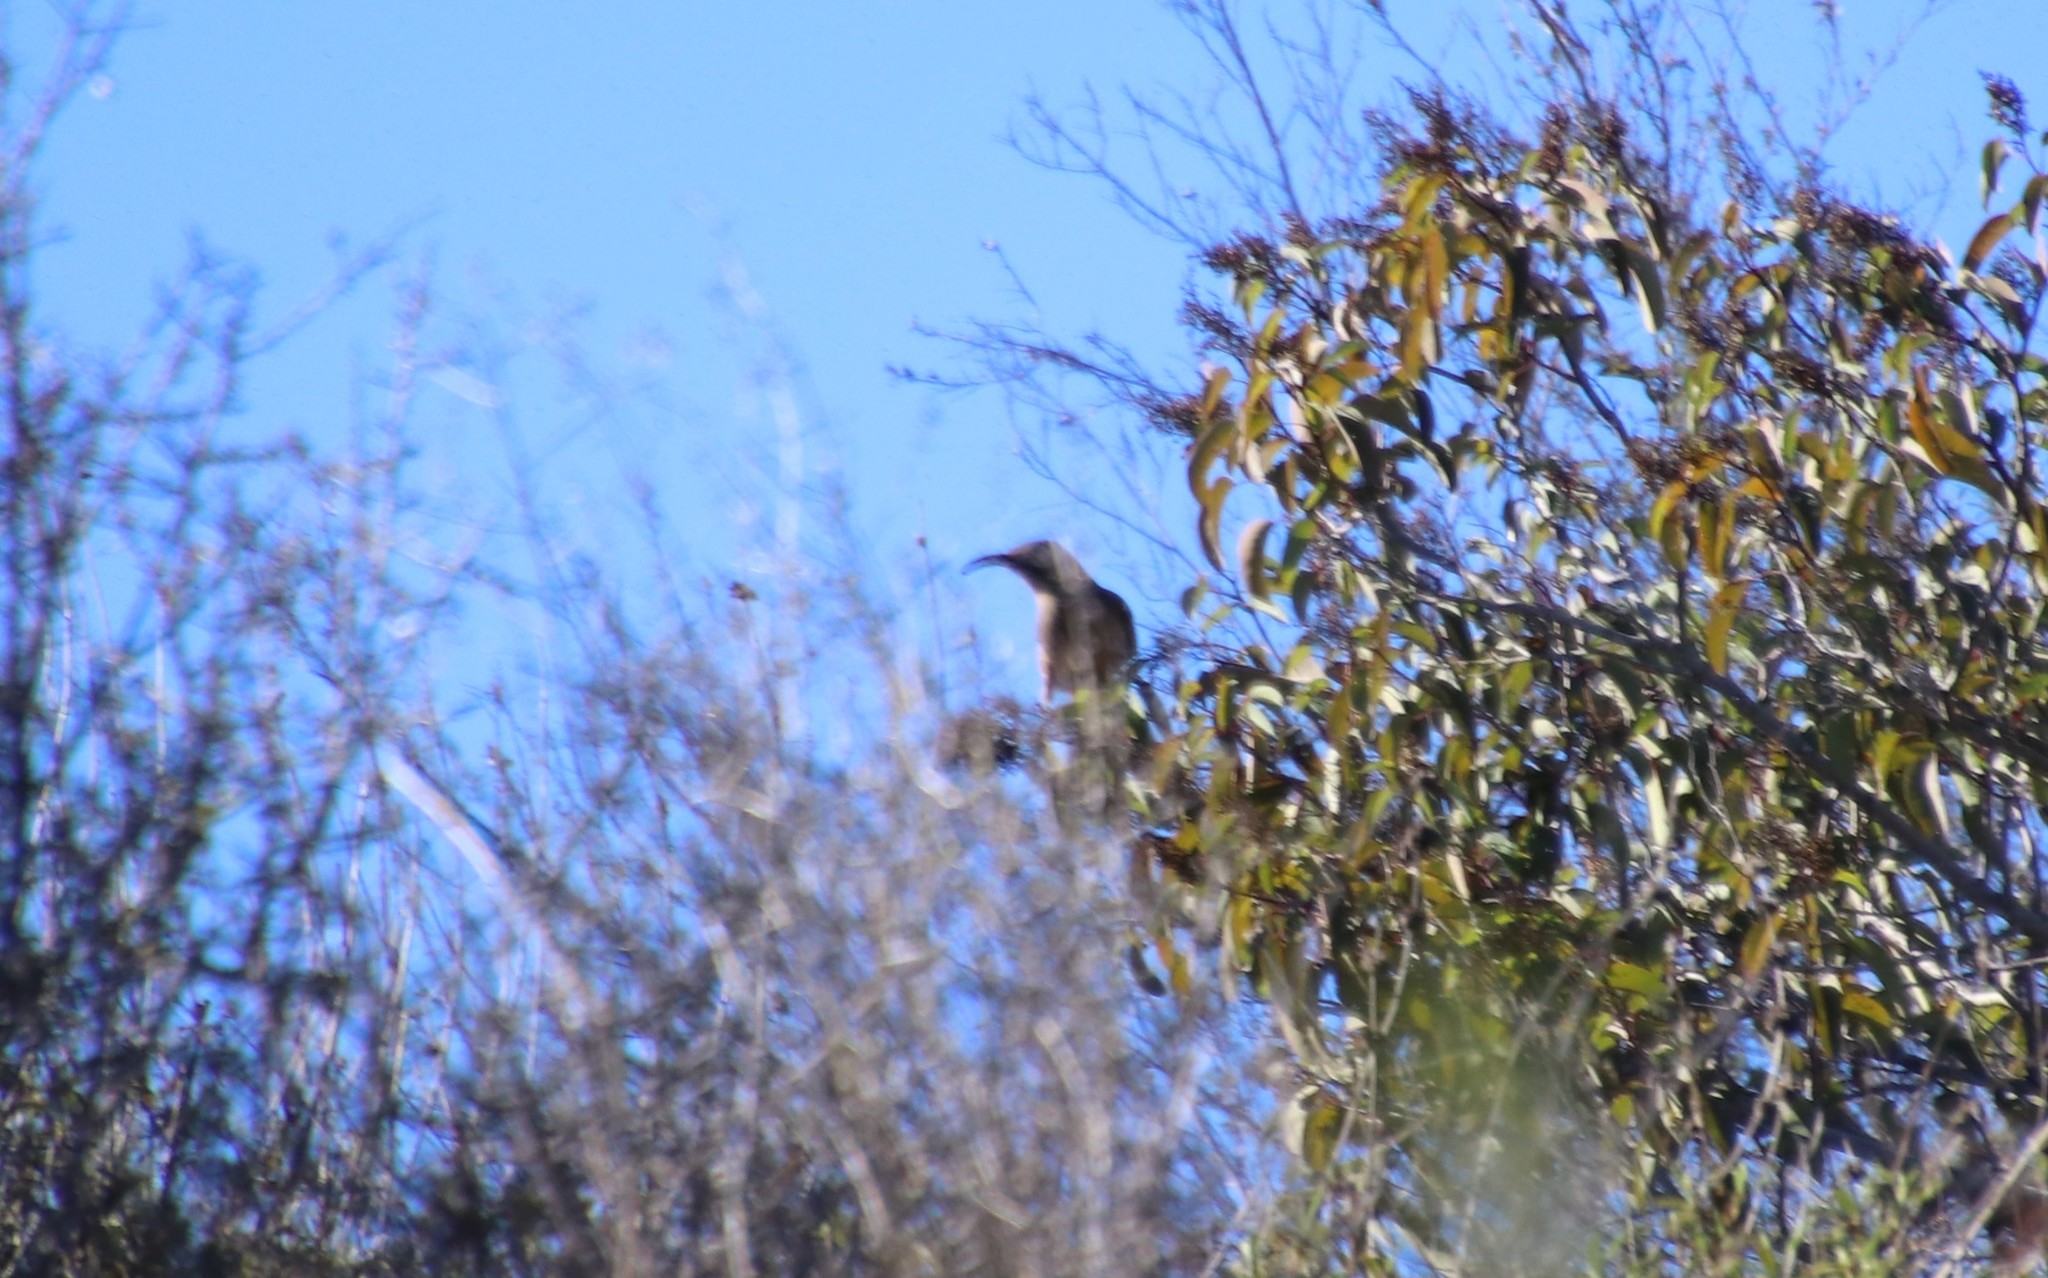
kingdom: Animalia
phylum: Chordata
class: Aves
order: Passeriformes
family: Mimidae
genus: Toxostoma
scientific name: Toxostoma redivivum
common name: California thrasher
